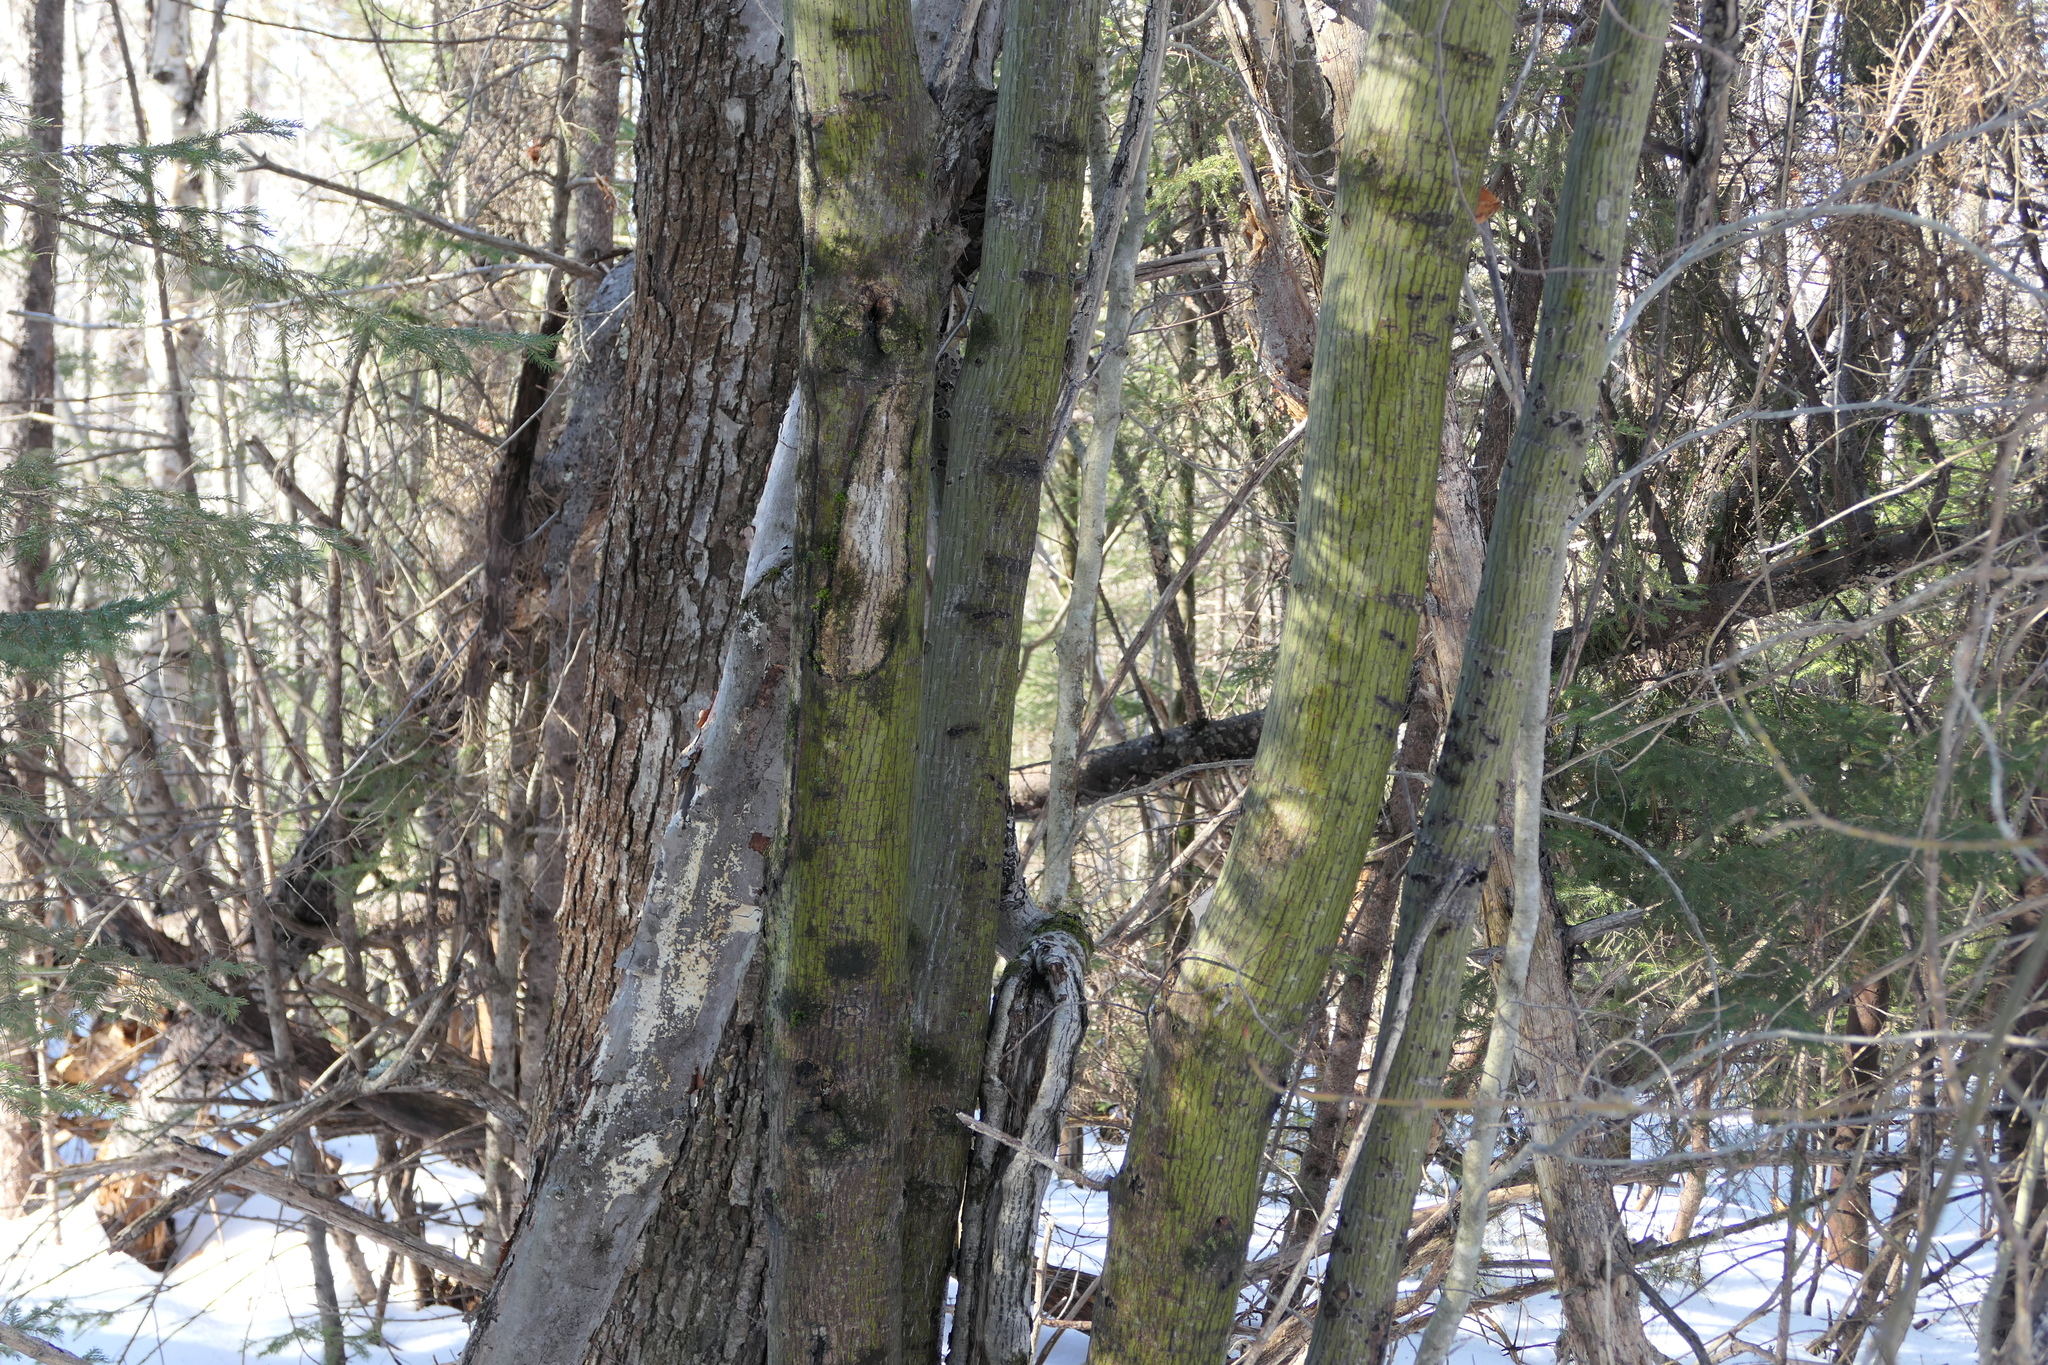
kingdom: Plantae
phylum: Tracheophyta
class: Magnoliopsida
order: Sapindales
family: Sapindaceae
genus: Acer
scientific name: Acer pensylvanicum
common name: Moosewood
